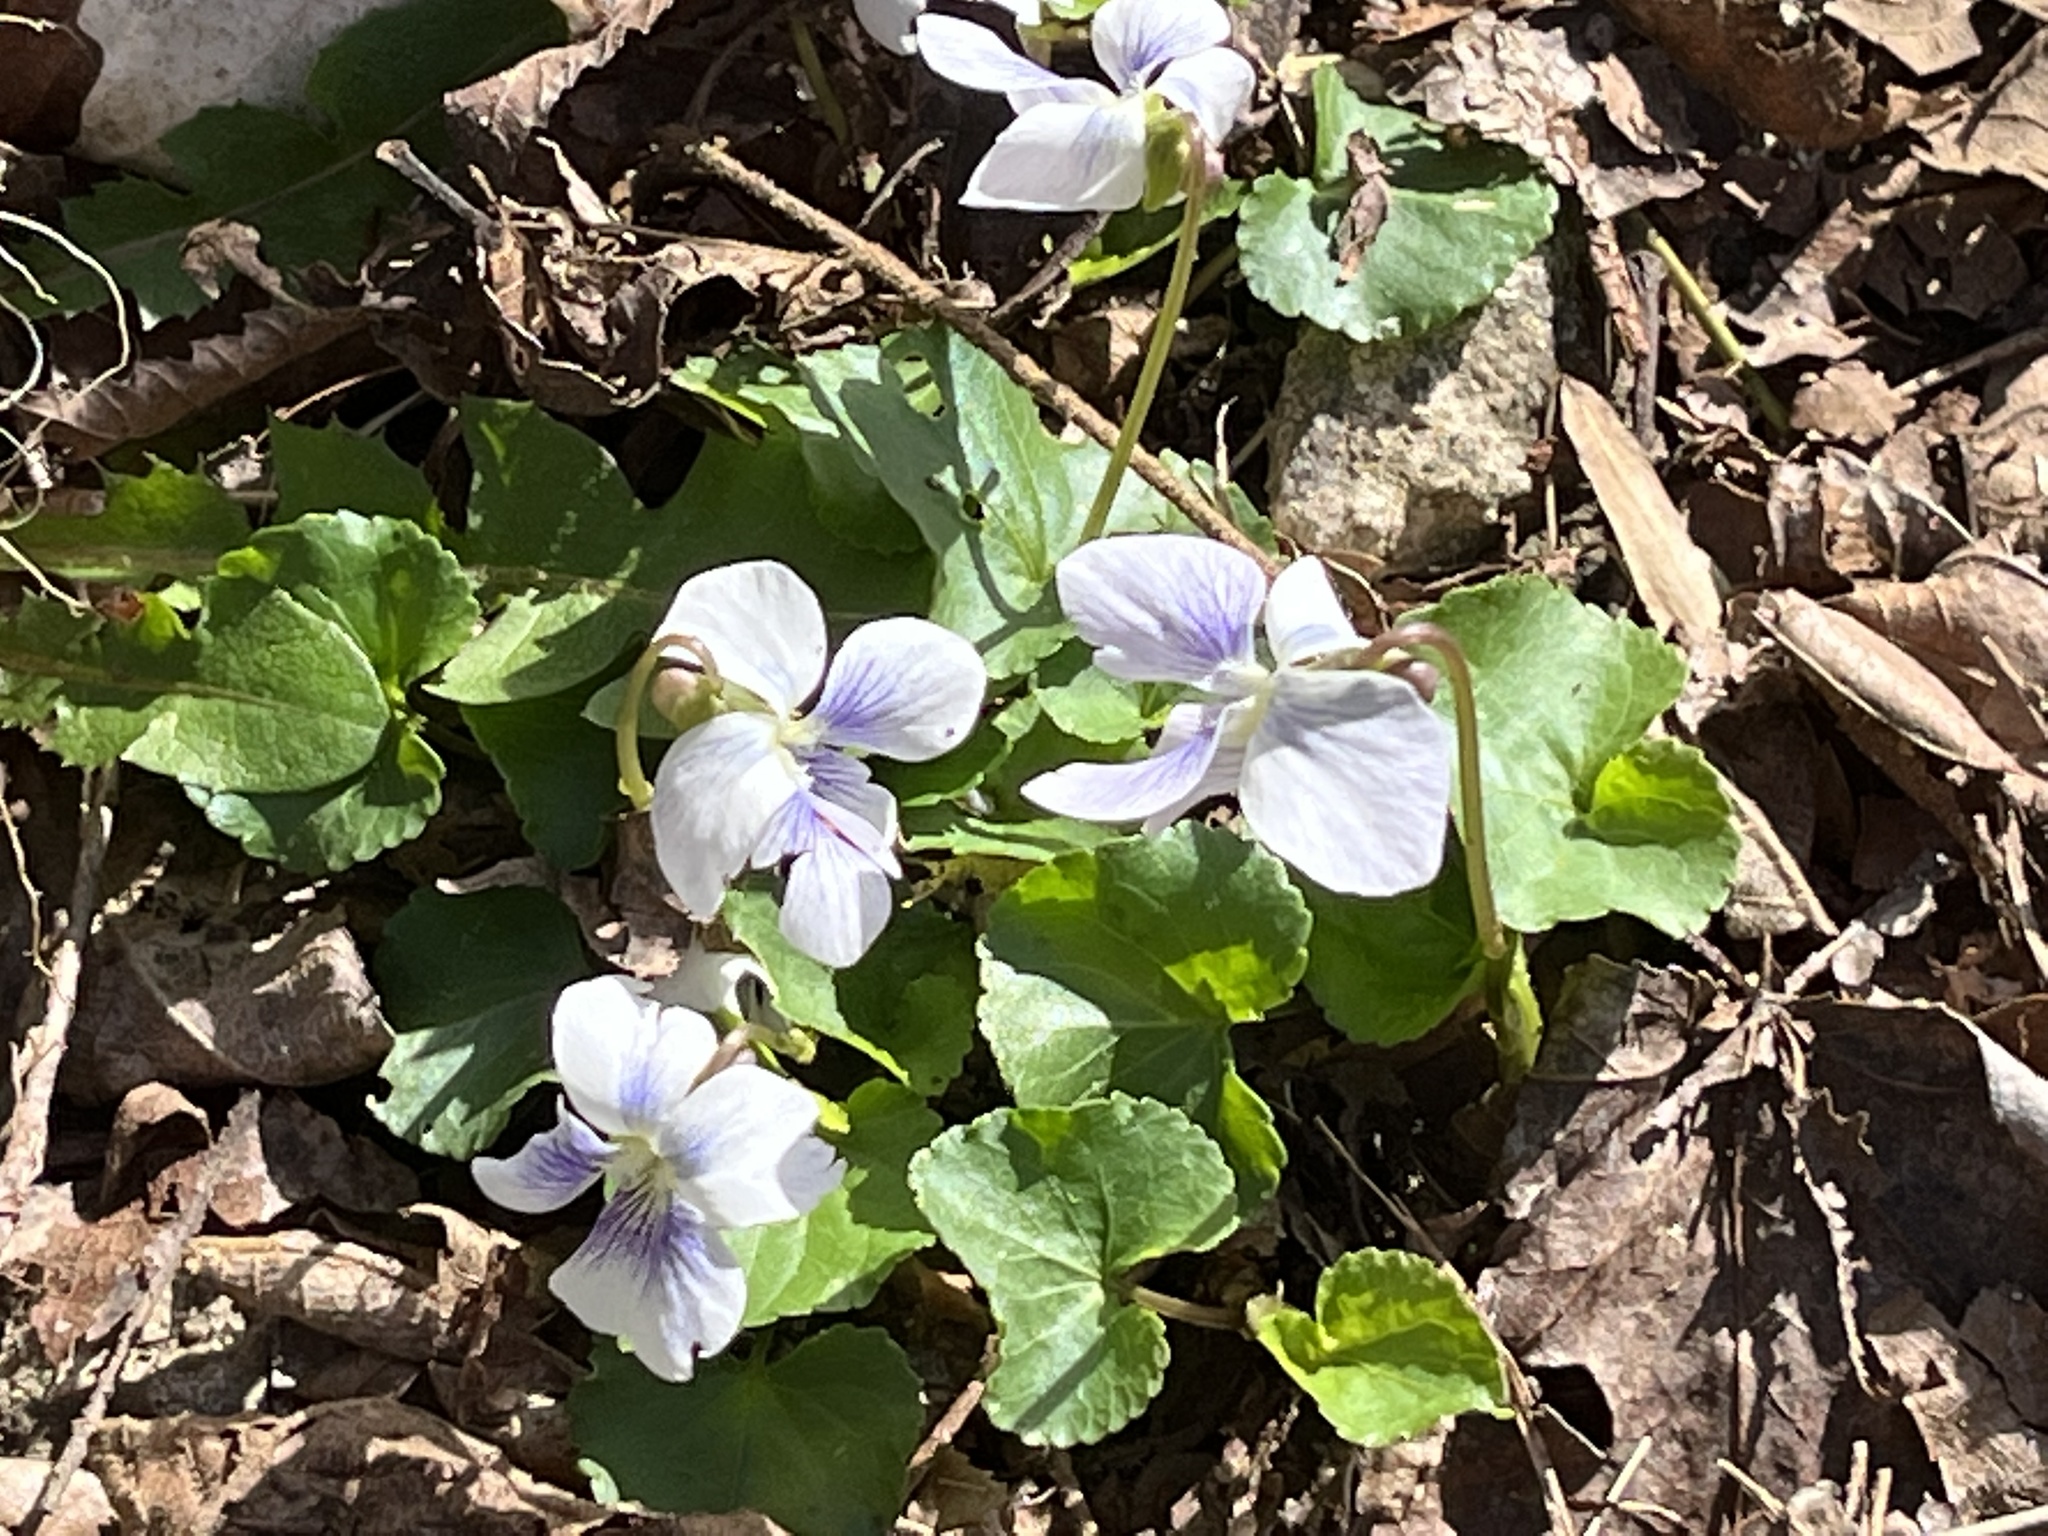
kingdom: Plantae
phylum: Tracheophyta
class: Magnoliopsida
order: Malpighiales
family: Violaceae
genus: Viola
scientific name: Viola sororia
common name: Dooryard violet
